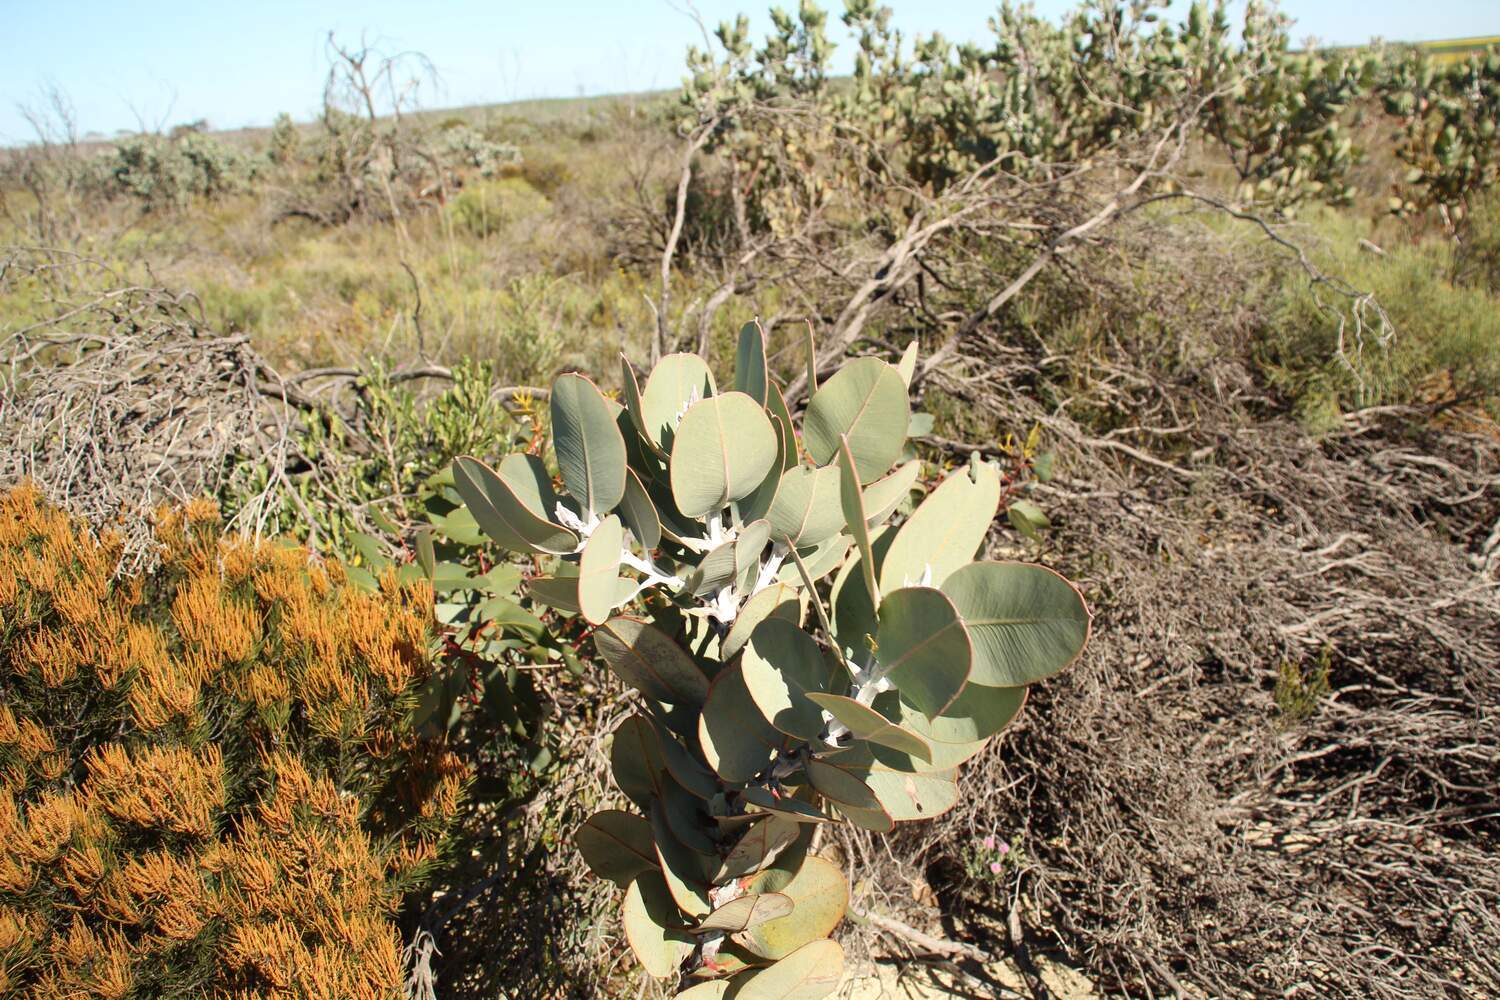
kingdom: Plantae
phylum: Tracheophyta
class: Magnoliopsida
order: Myrtales
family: Myrtaceae
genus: Eucalyptus
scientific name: Eucalyptus tetragona
